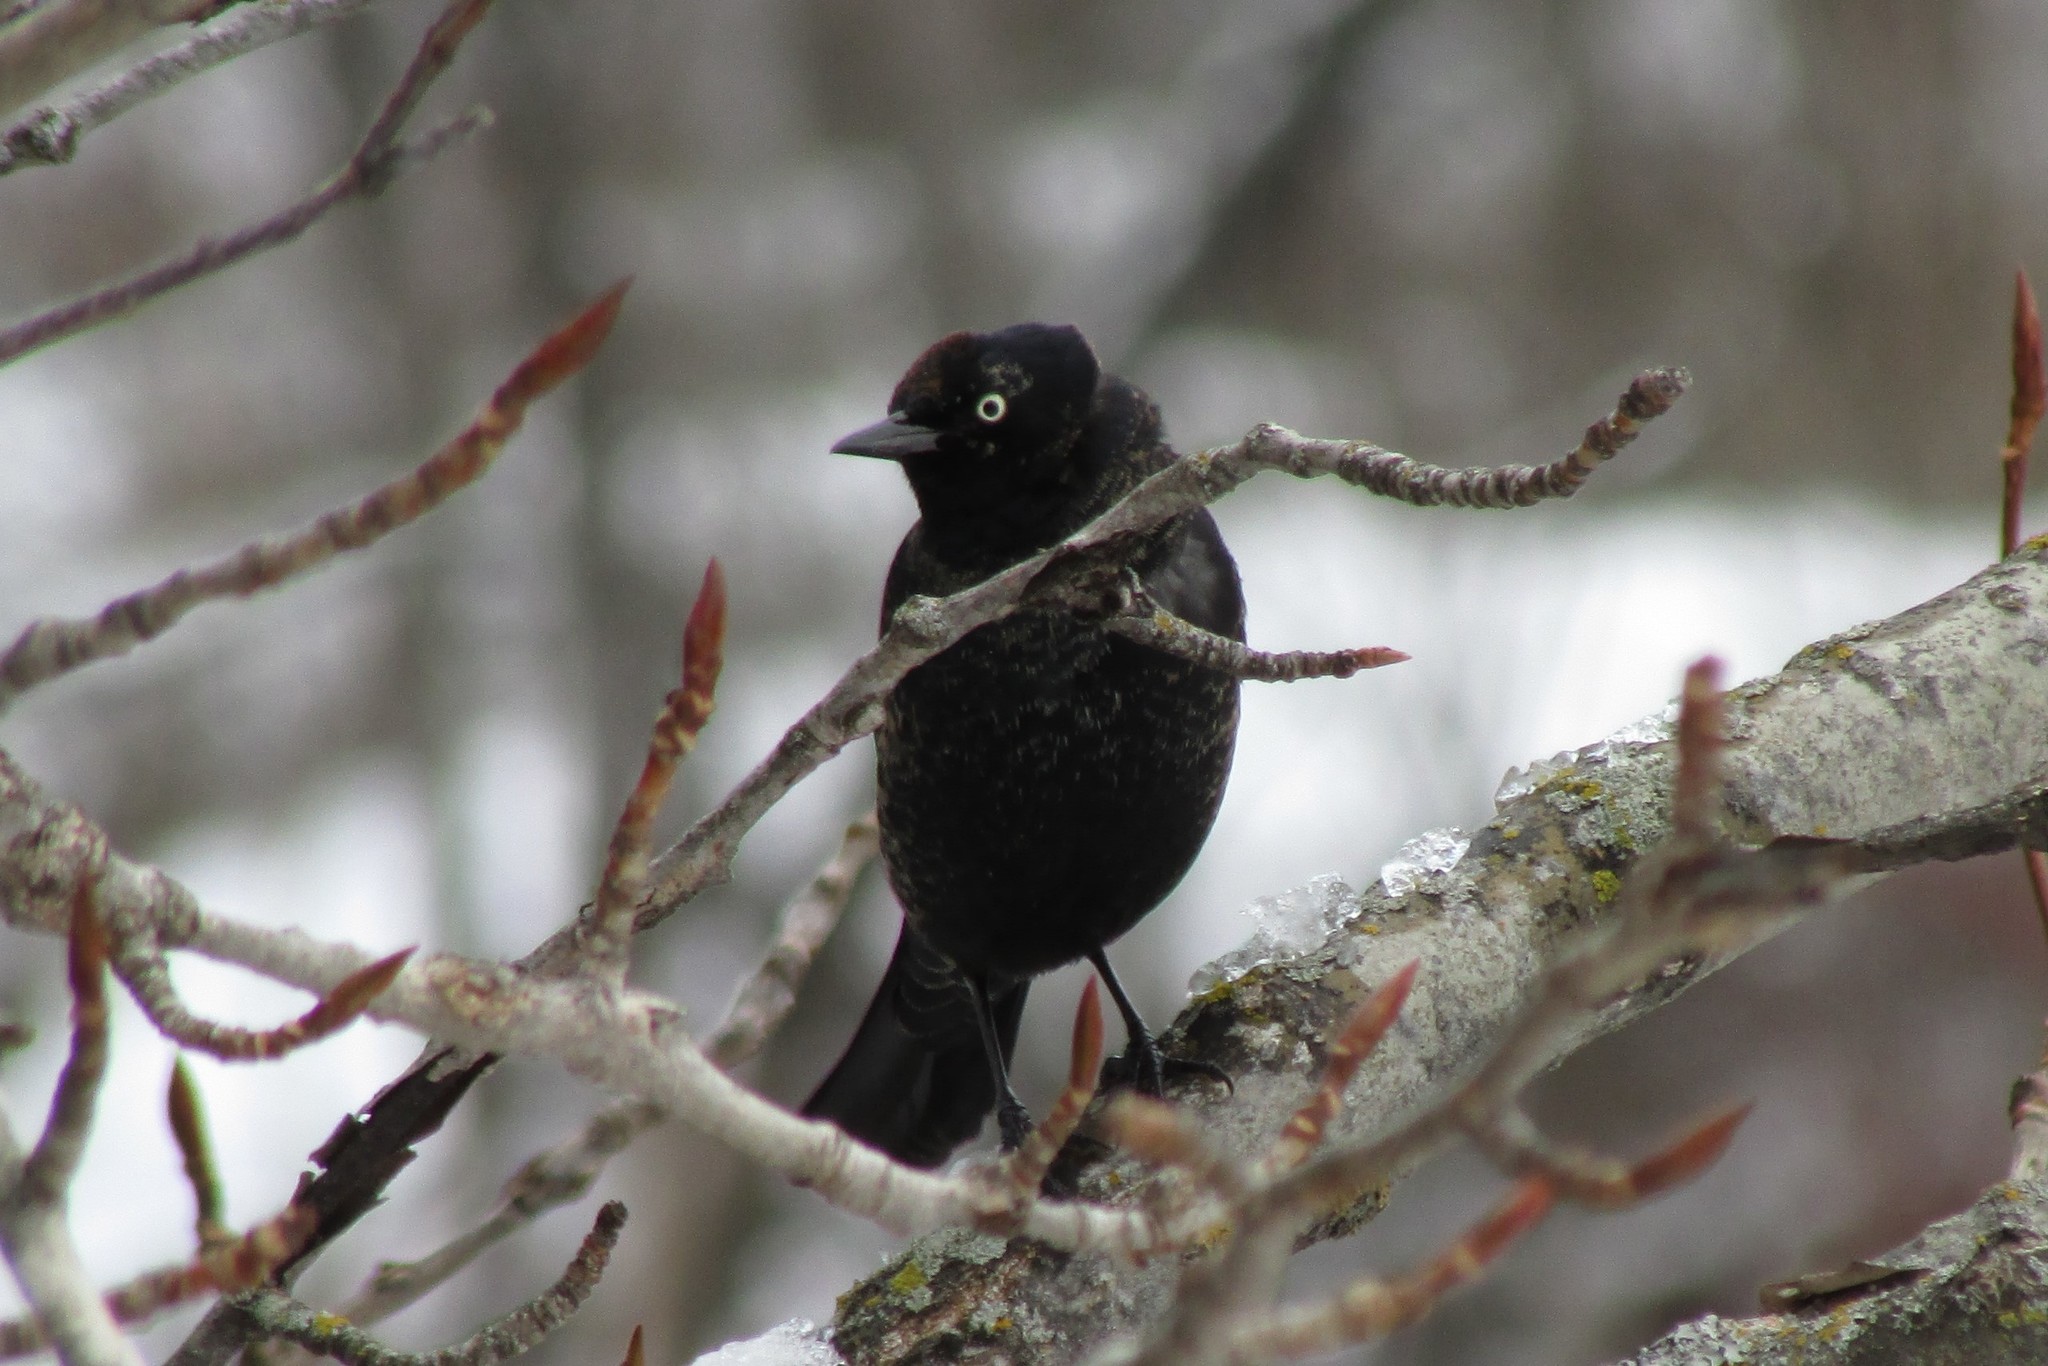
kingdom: Animalia
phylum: Chordata
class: Aves
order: Passeriformes
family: Icteridae
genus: Euphagus
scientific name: Euphagus carolinus
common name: Rusty blackbird
